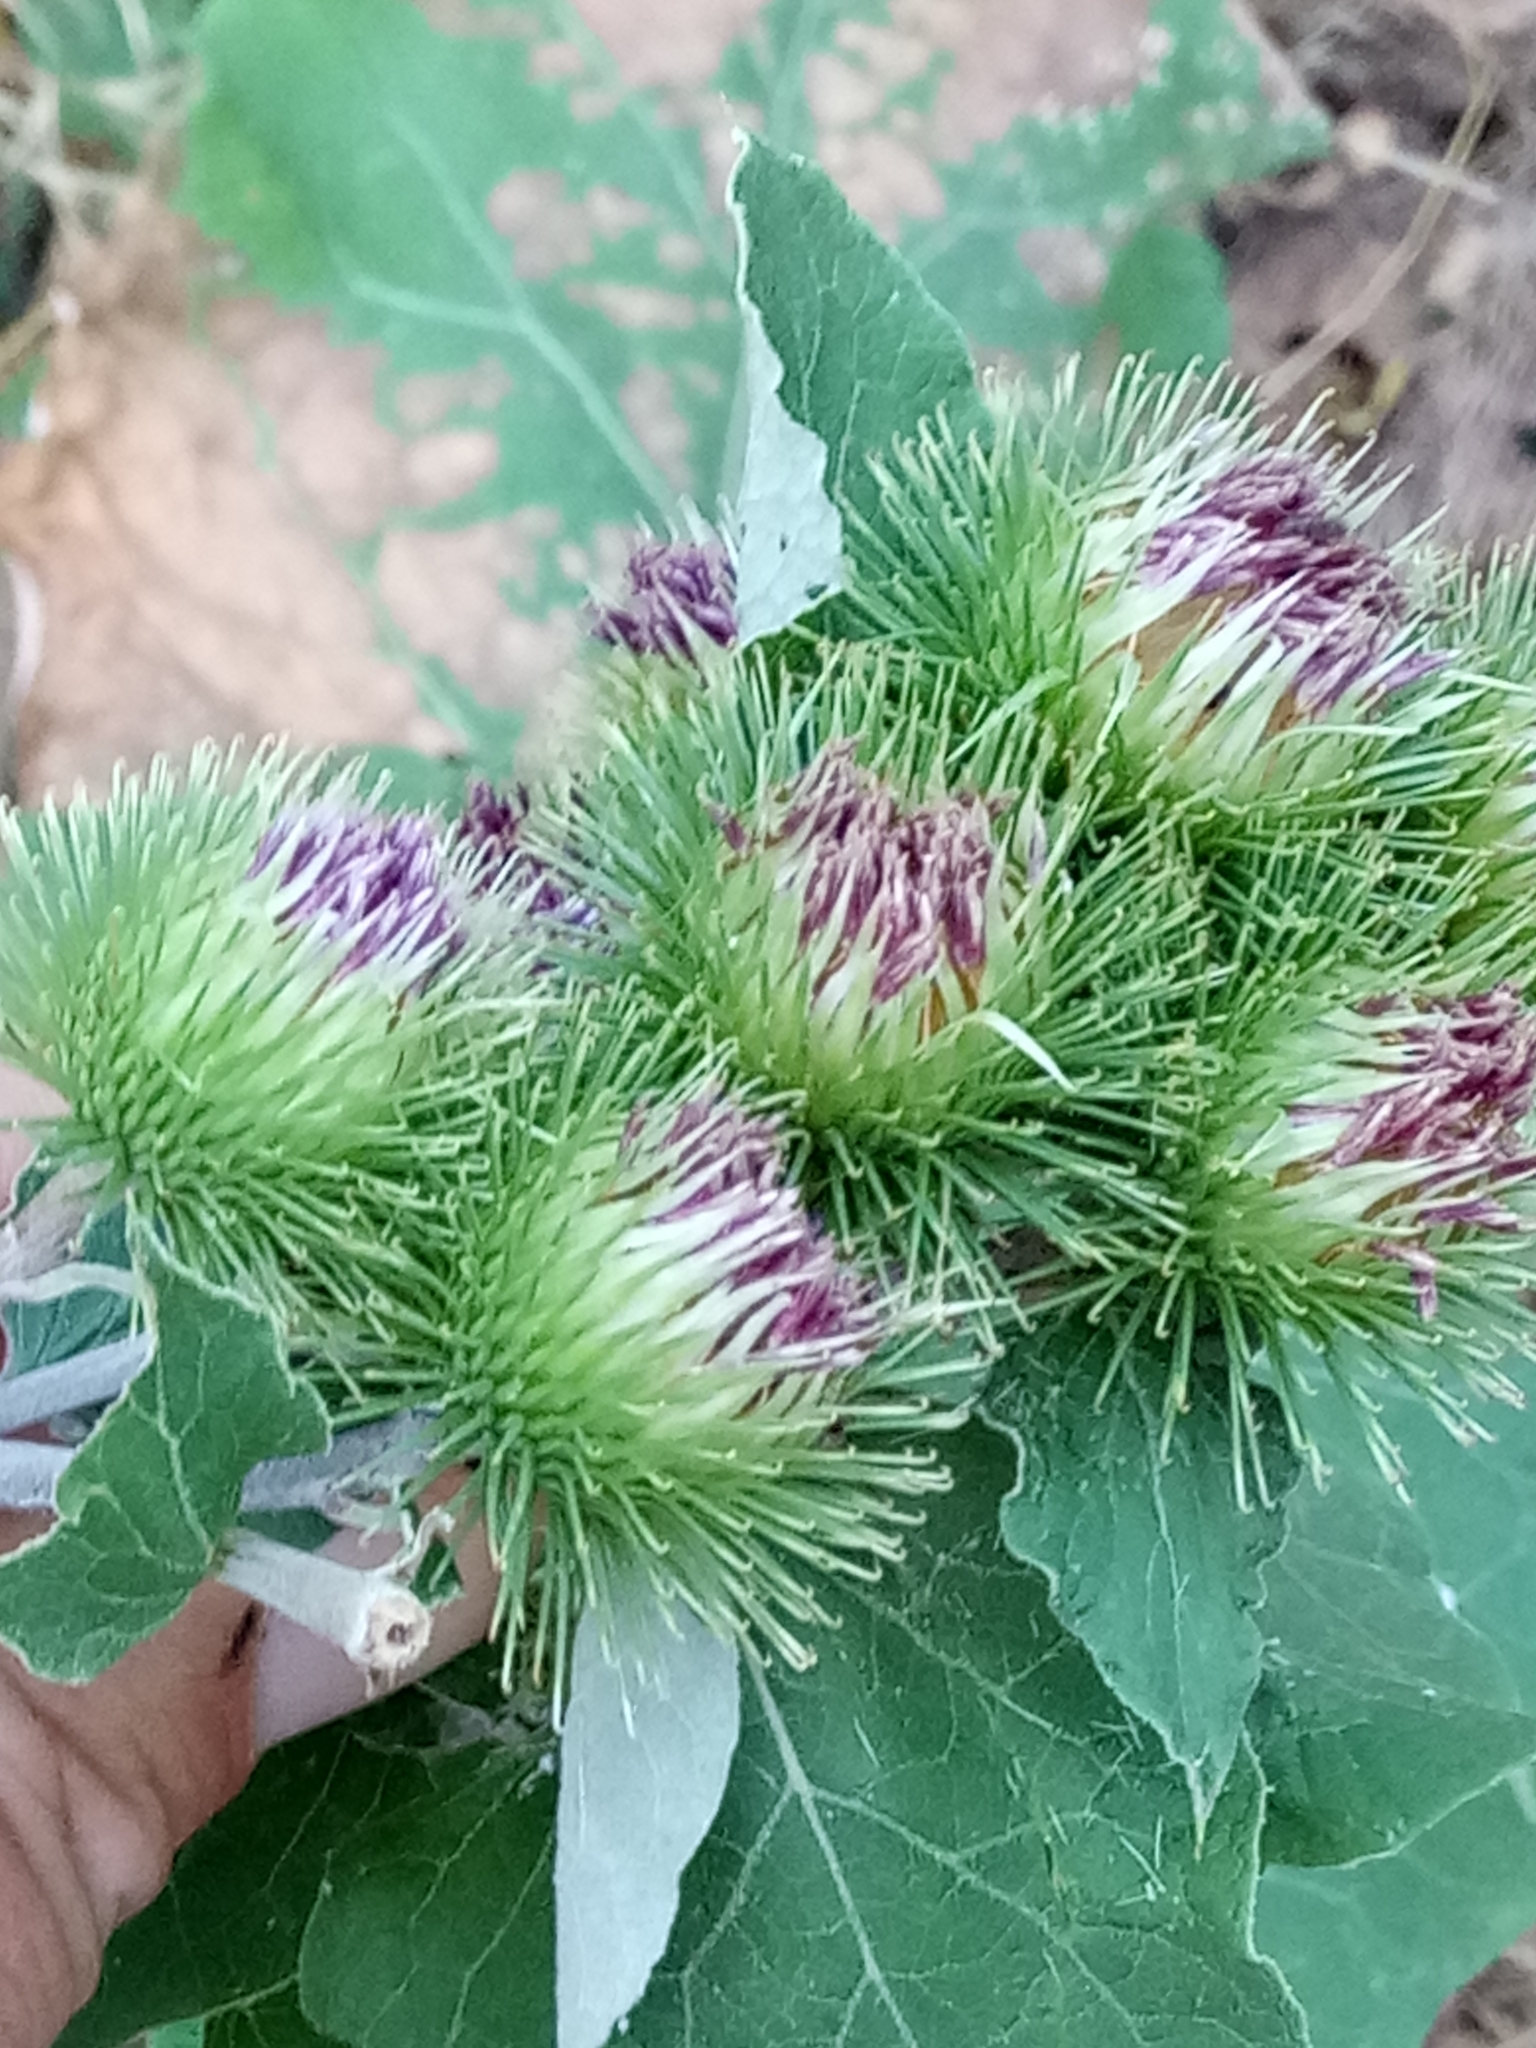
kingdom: Plantae
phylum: Tracheophyta
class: Magnoliopsida
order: Asterales
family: Asteraceae
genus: Arctium
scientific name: Arctium lappa
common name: Greater burdock
